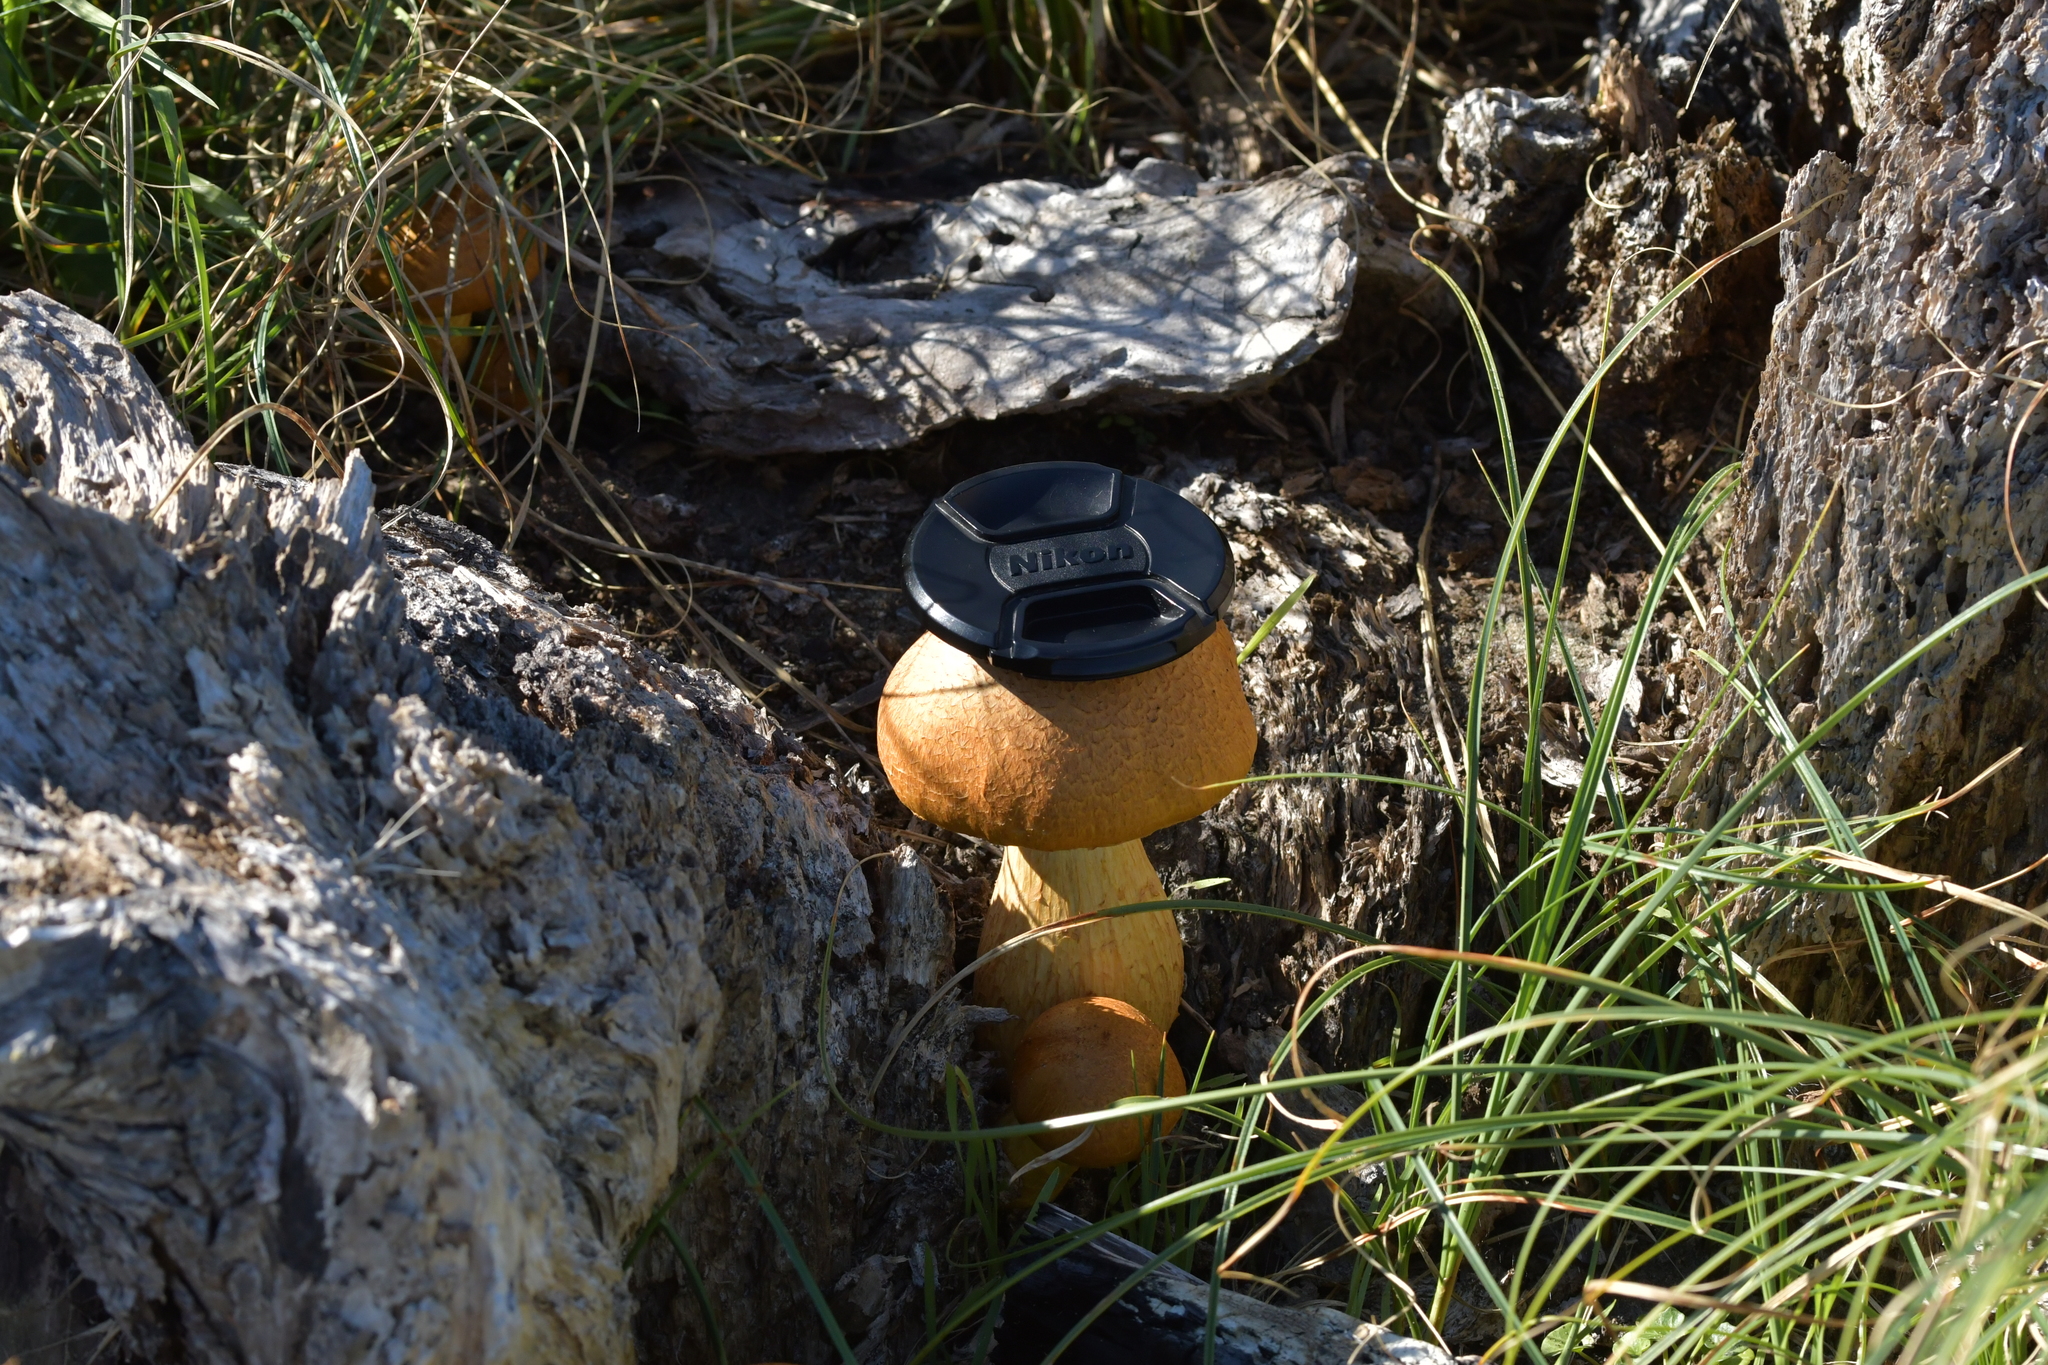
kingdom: Fungi
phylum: Basidiomycota
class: Agaricomycetes
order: Agaricales
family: Hymenogastraceae
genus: Gymnopilus
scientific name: Gymnopilus junonius
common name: Spectacular rustgill
